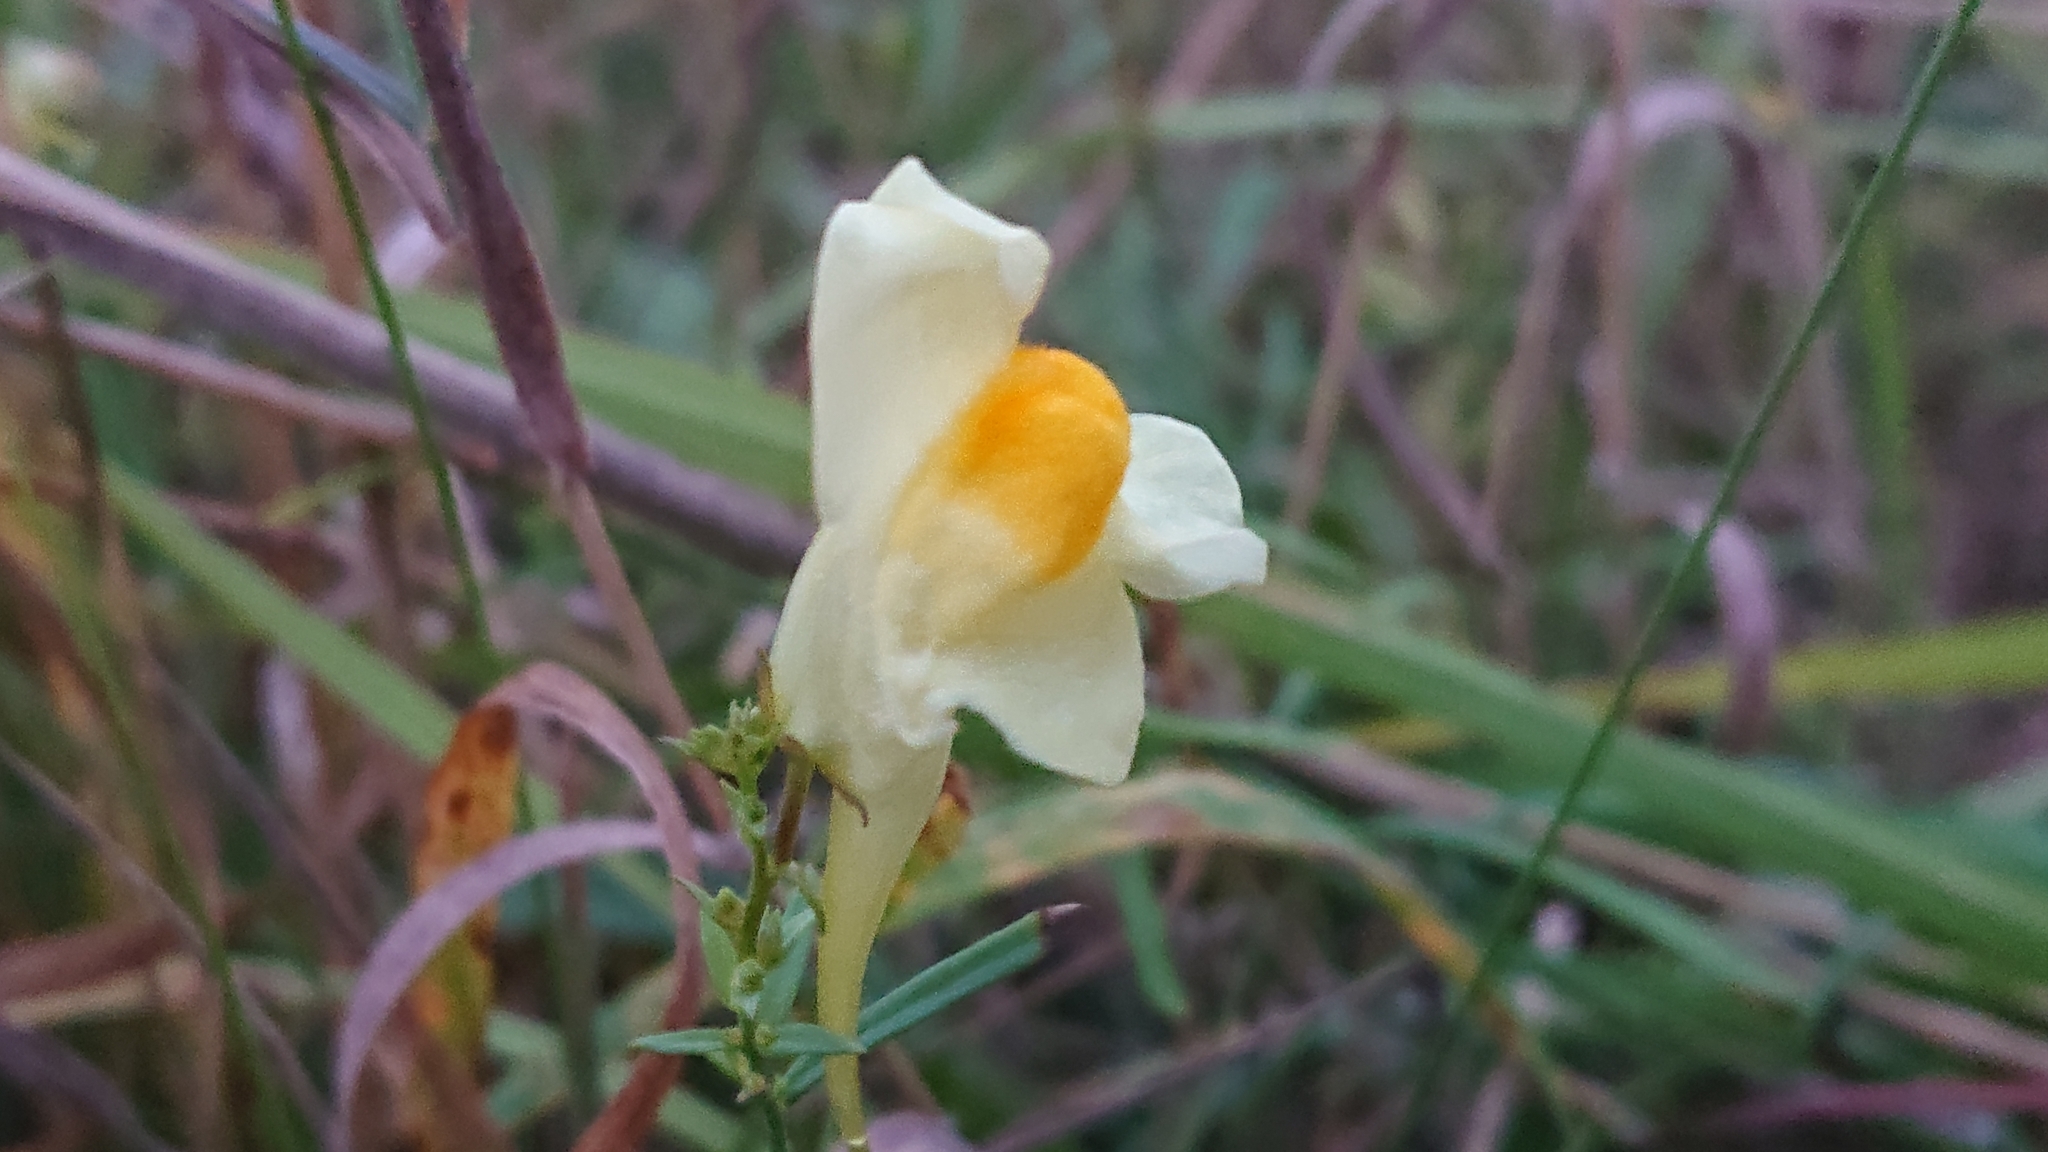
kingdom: Plantae
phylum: Tracheophyta
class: Magnoliopsida
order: Lamiales
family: Plantaginaceae
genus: Linaria
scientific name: Linaria vulgaris
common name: Butter and eggs
